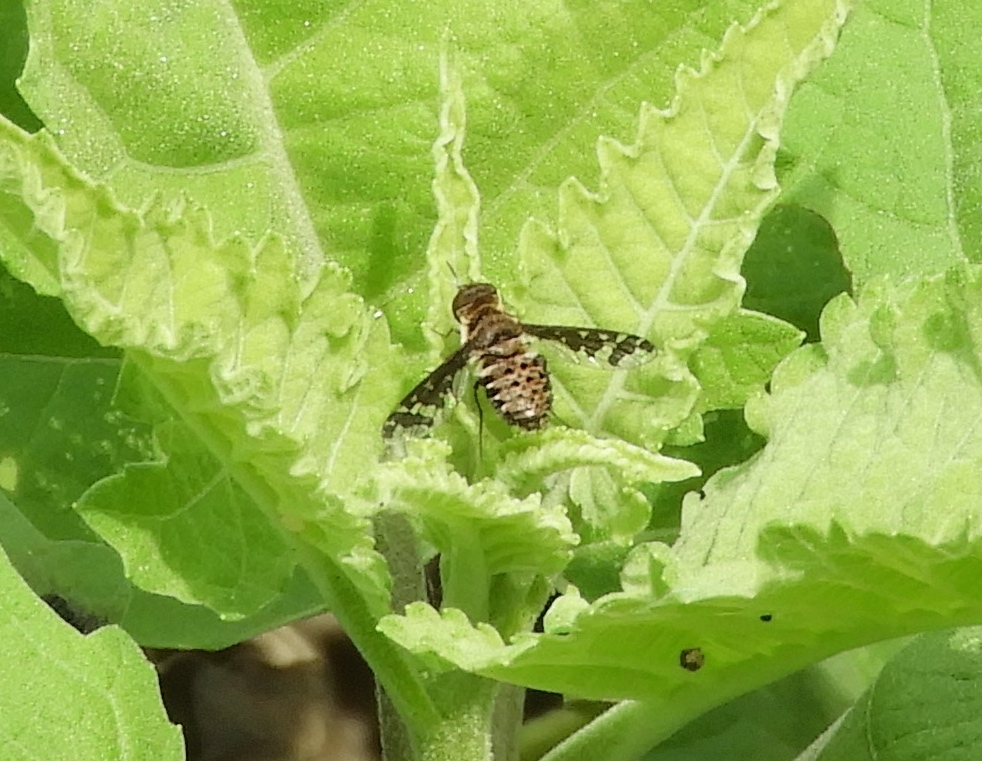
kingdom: Animalia
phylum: Arthropoda
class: Insecta
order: Diptera
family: Bombyliidae
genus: Lepidanthrax
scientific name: Lepidanthrax
